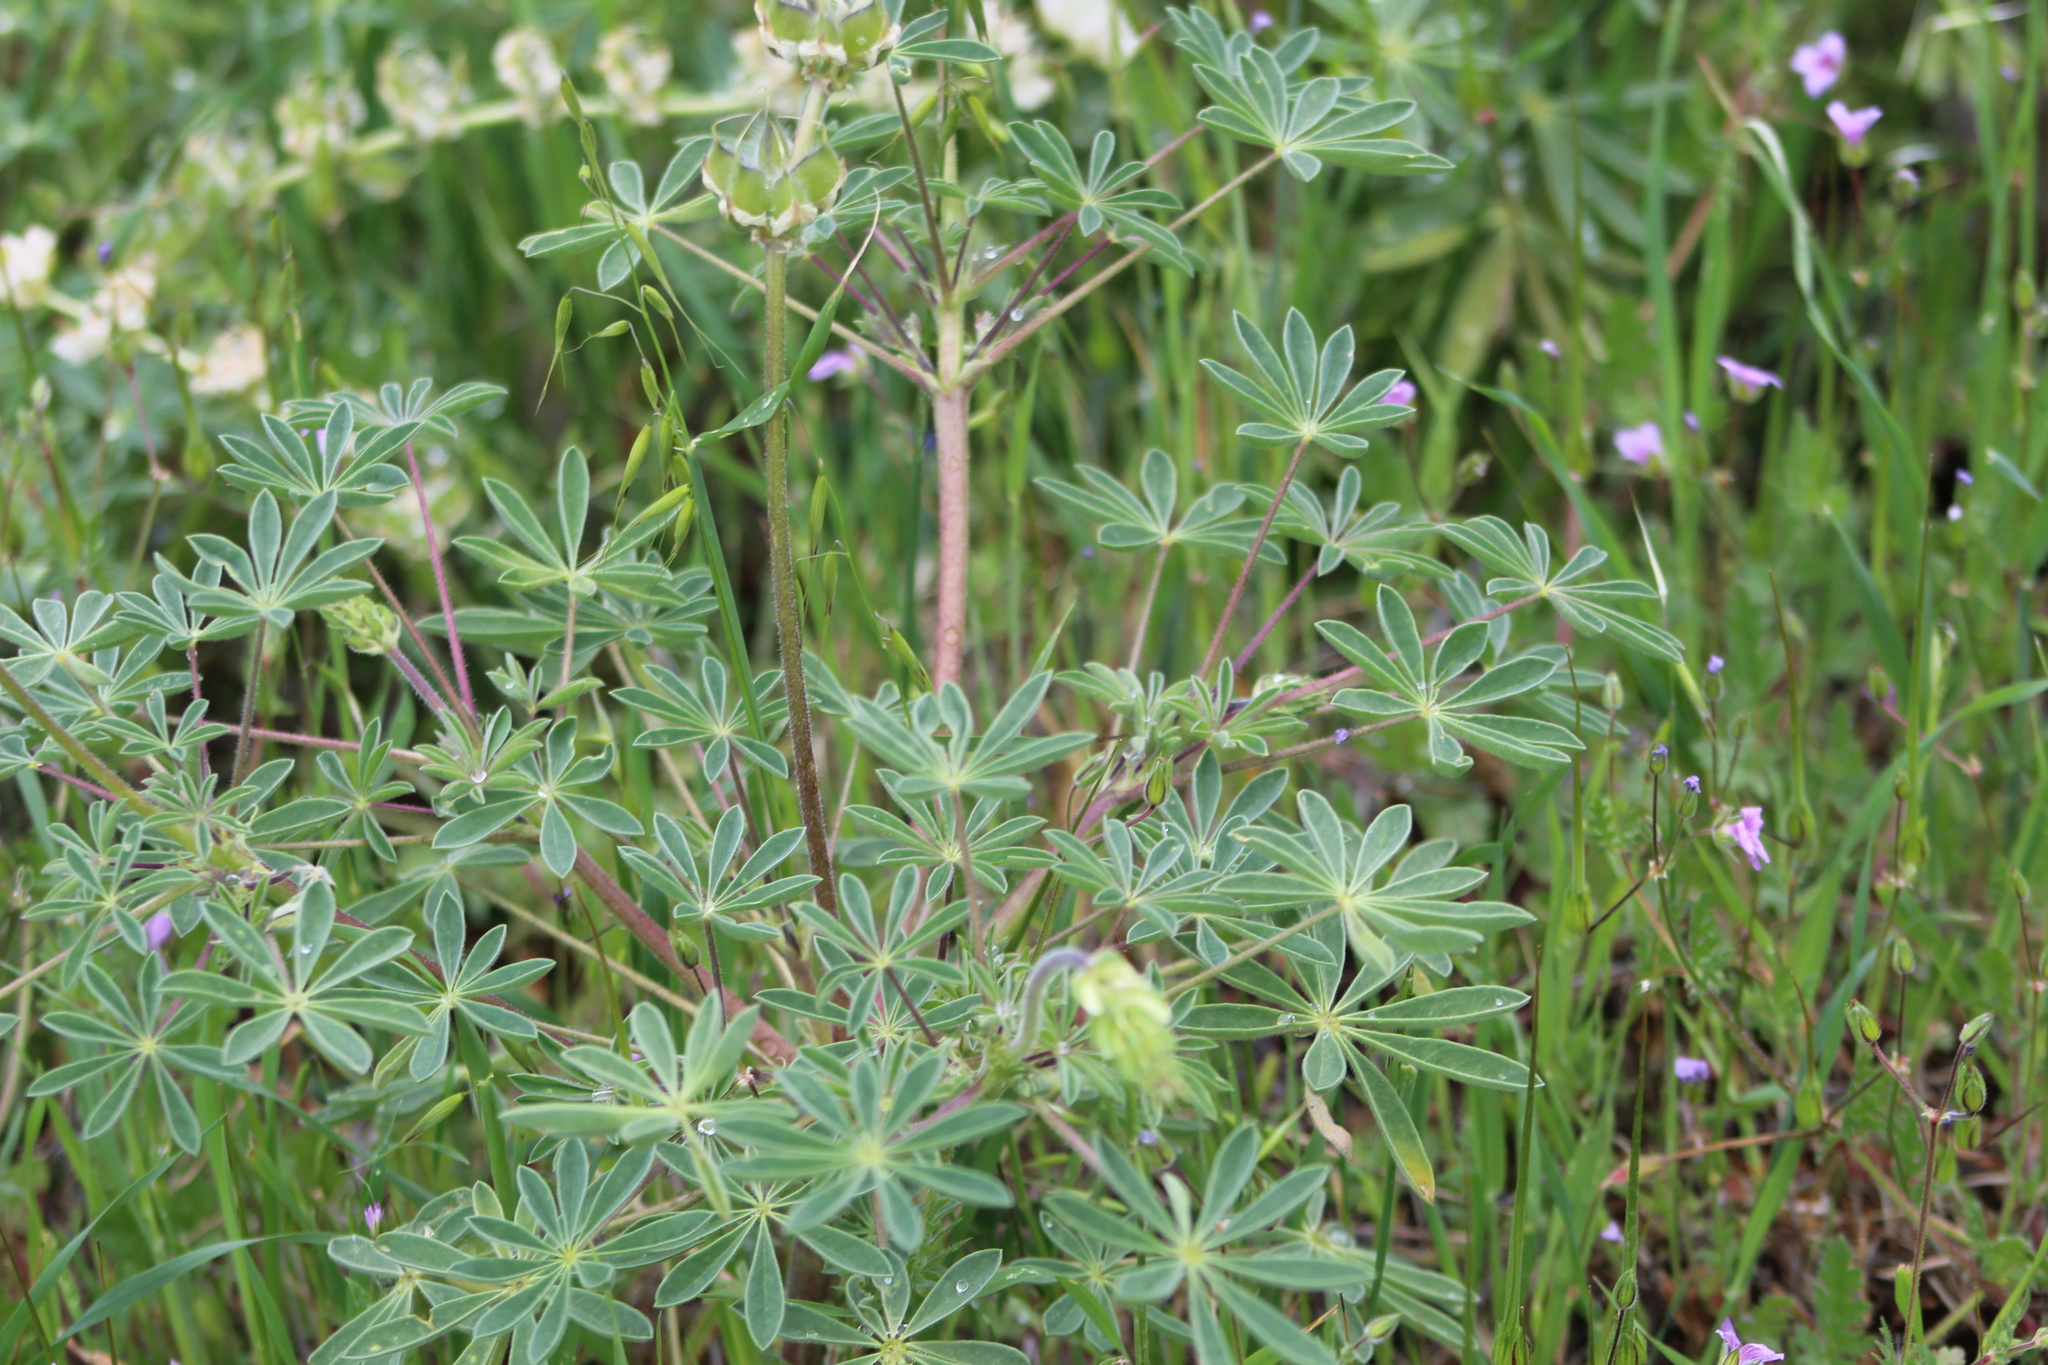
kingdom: Plantae
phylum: Tracheophyta
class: Magnoliopsida
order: Fabales
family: Fabaceae
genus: Lupinus
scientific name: Lupinus microcarpus
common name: Chick lupine
